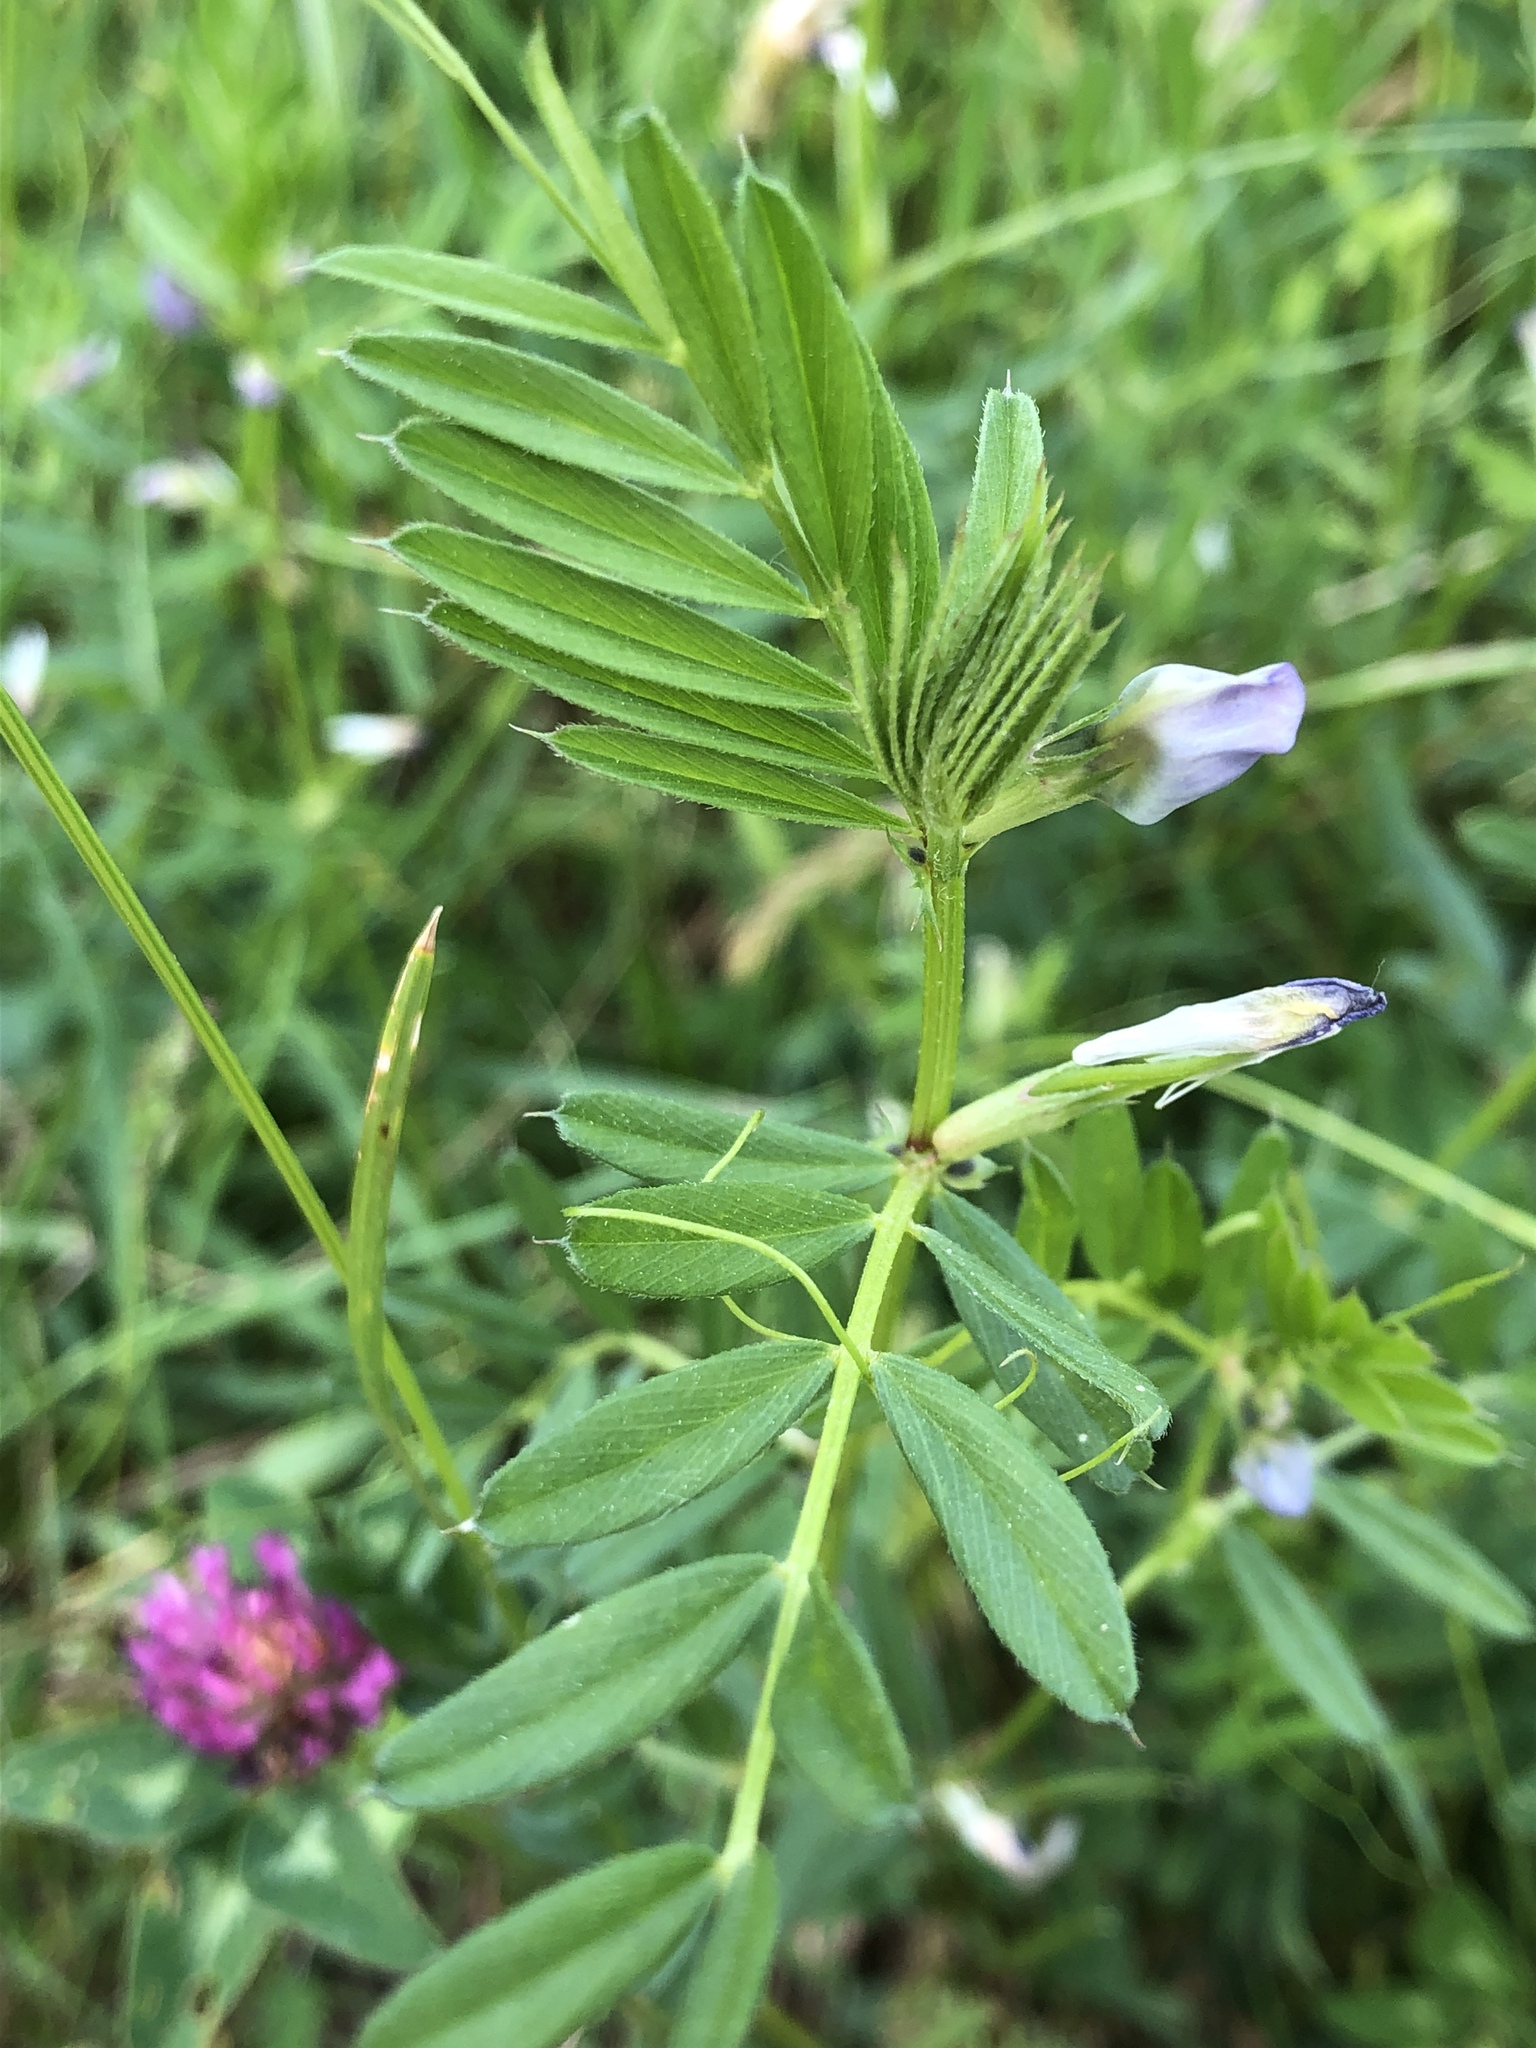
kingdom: Plantae
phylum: Tracheophyta
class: Magnoliopsida
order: Fabales
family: Fabaceae
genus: Vicia
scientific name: Vicia sativa
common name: Garden vetch
